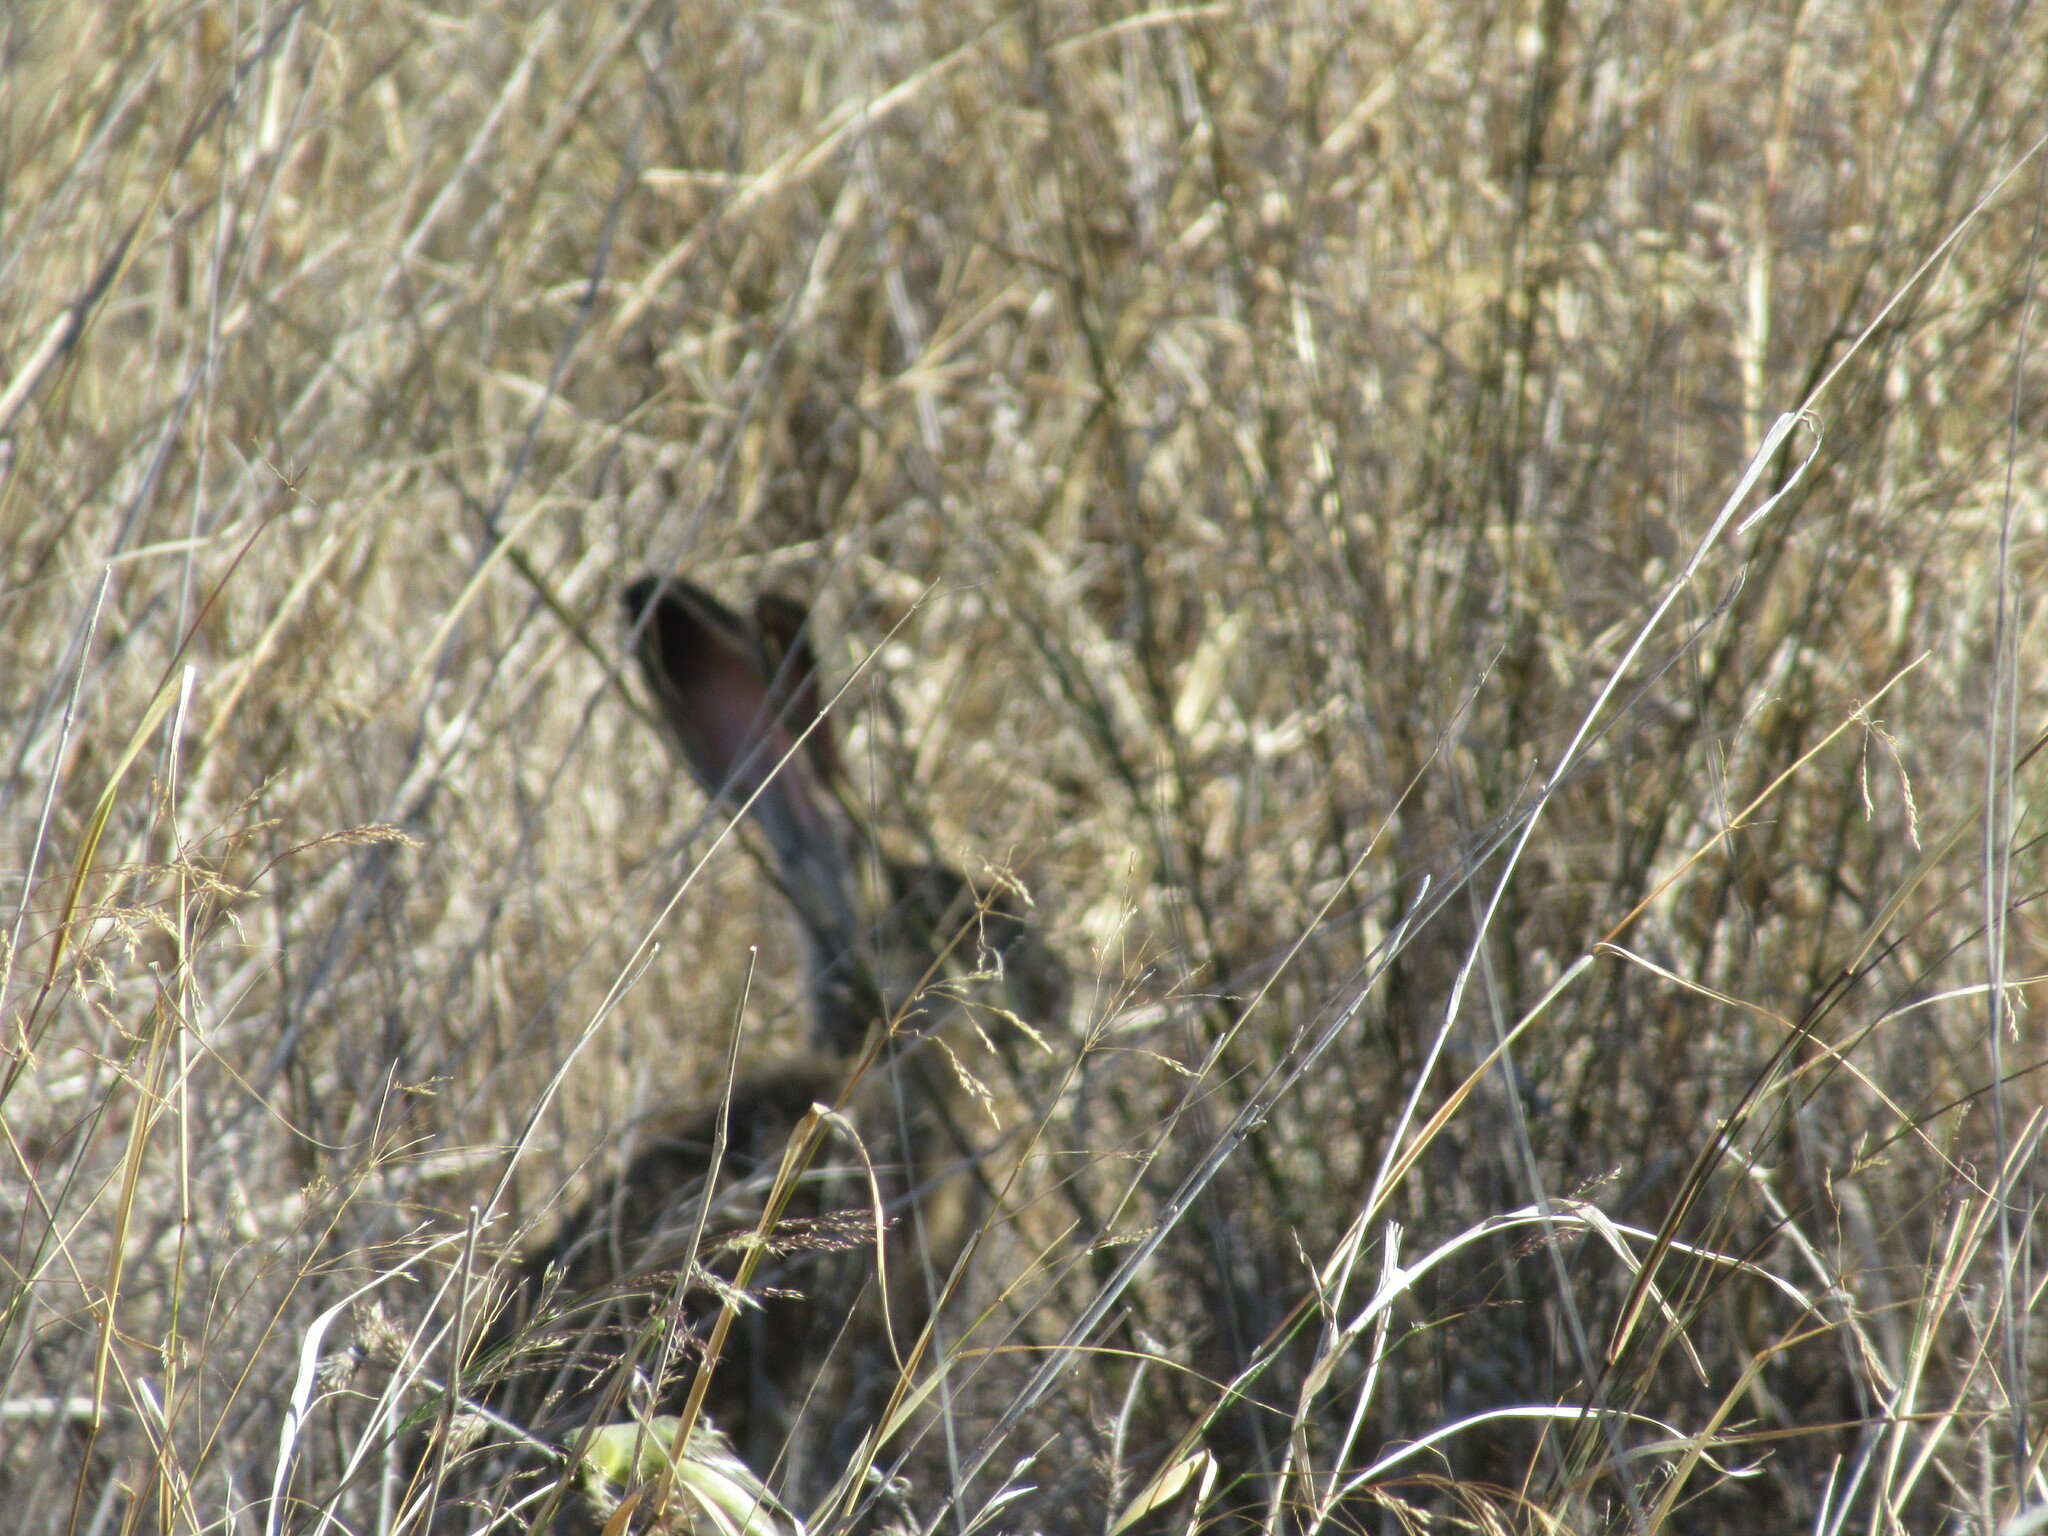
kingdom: Animalia
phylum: Chordata
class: Mammalia
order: Lagomorpha
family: Leporidae
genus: Lepus
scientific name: Lepus californicus
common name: Black-tailed jackrabbit
